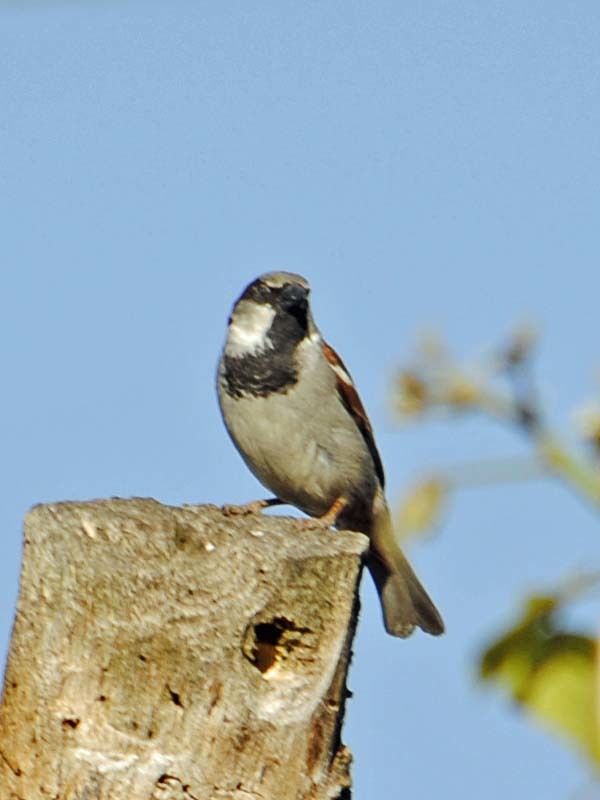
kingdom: Animalia
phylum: Chordata
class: Aves
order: Passeriformes
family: Passeridae
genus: Passer
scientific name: Passer domesticus
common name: House sparrow
